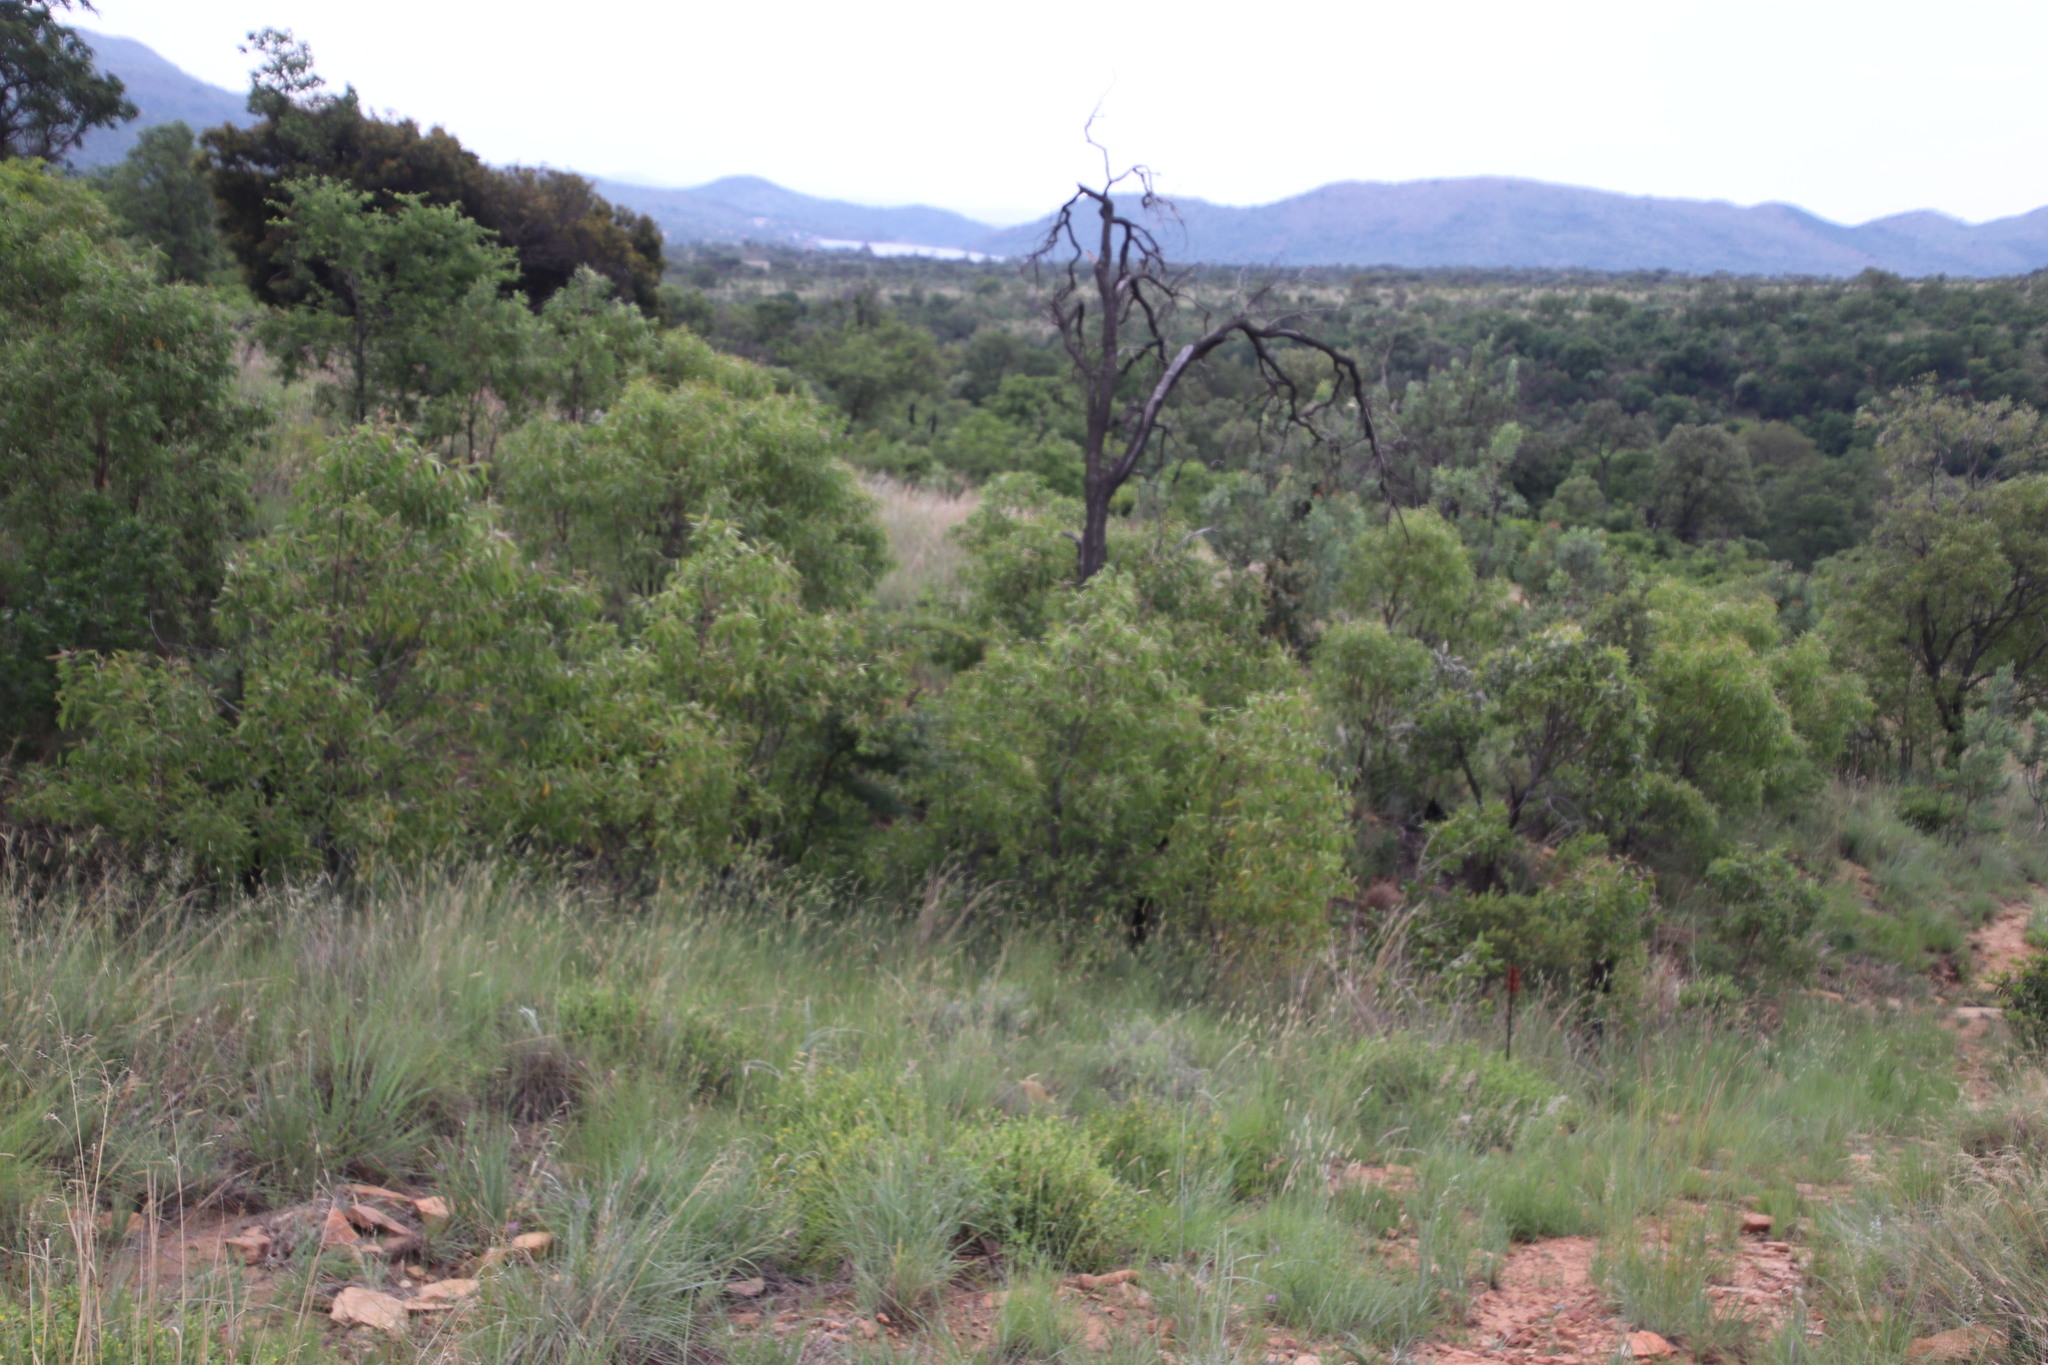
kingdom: Plantae
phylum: Tracheophyta
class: Magnoliopsida
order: Proteales
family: Proteaceae
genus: Faurea
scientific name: Faurea saligna
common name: African bean
